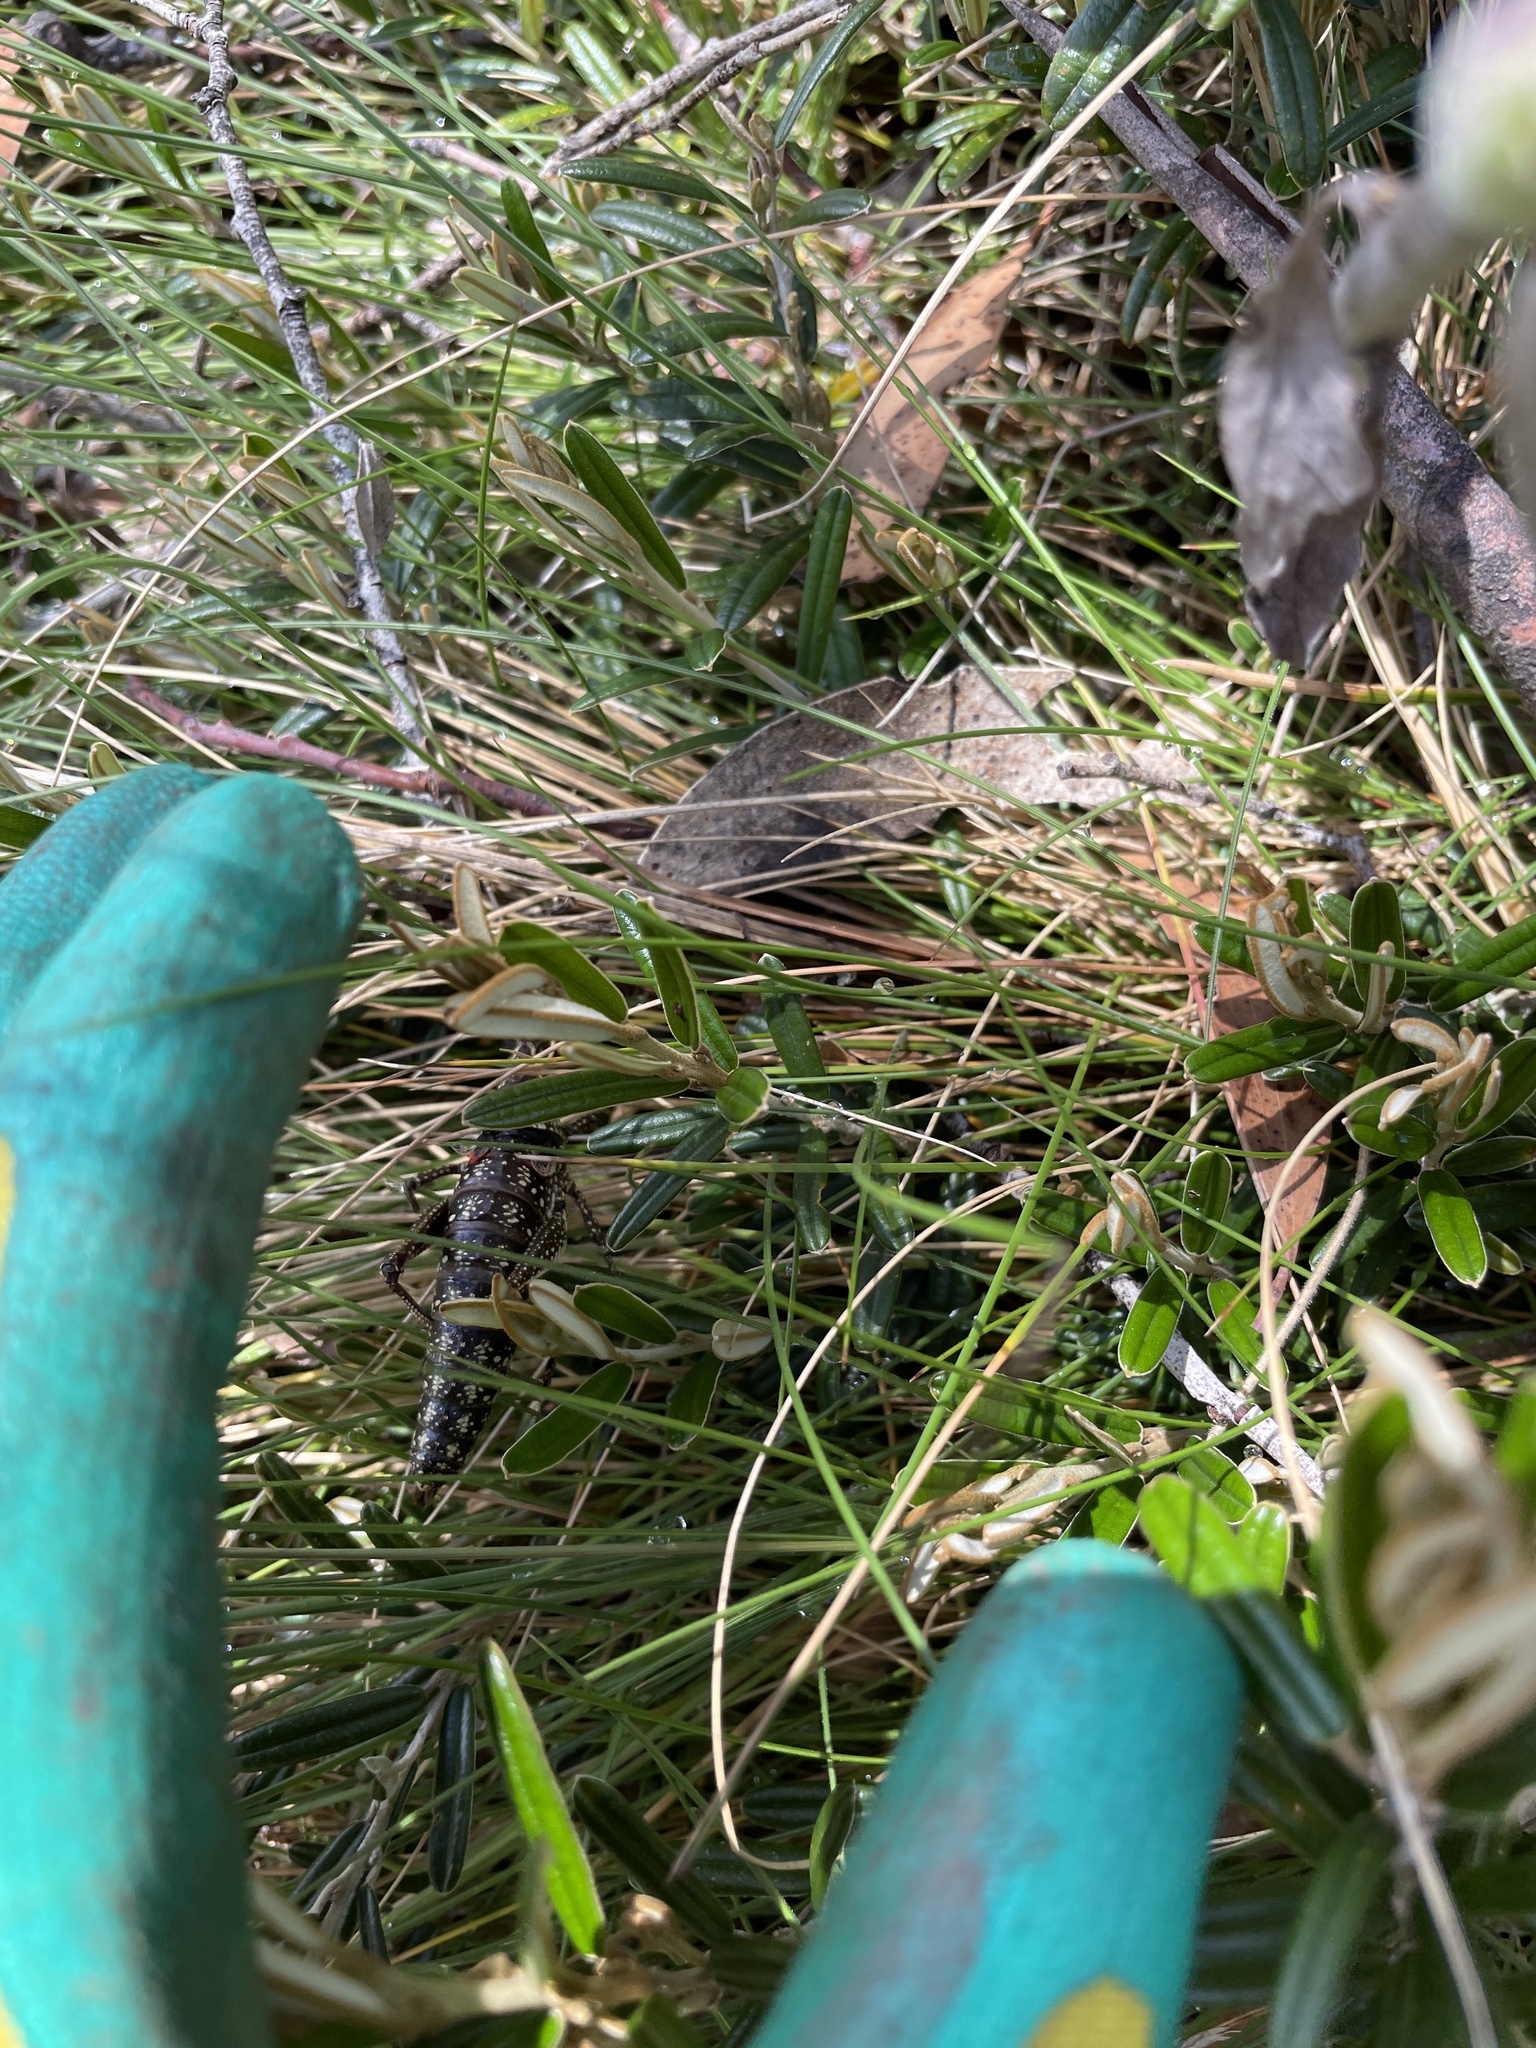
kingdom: Animalia
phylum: Arthropoda
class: Insecta
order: Orthoptera
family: Pyrgomorphidae
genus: Monistria
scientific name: Monistria concinna
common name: Southern pyrgomorph
